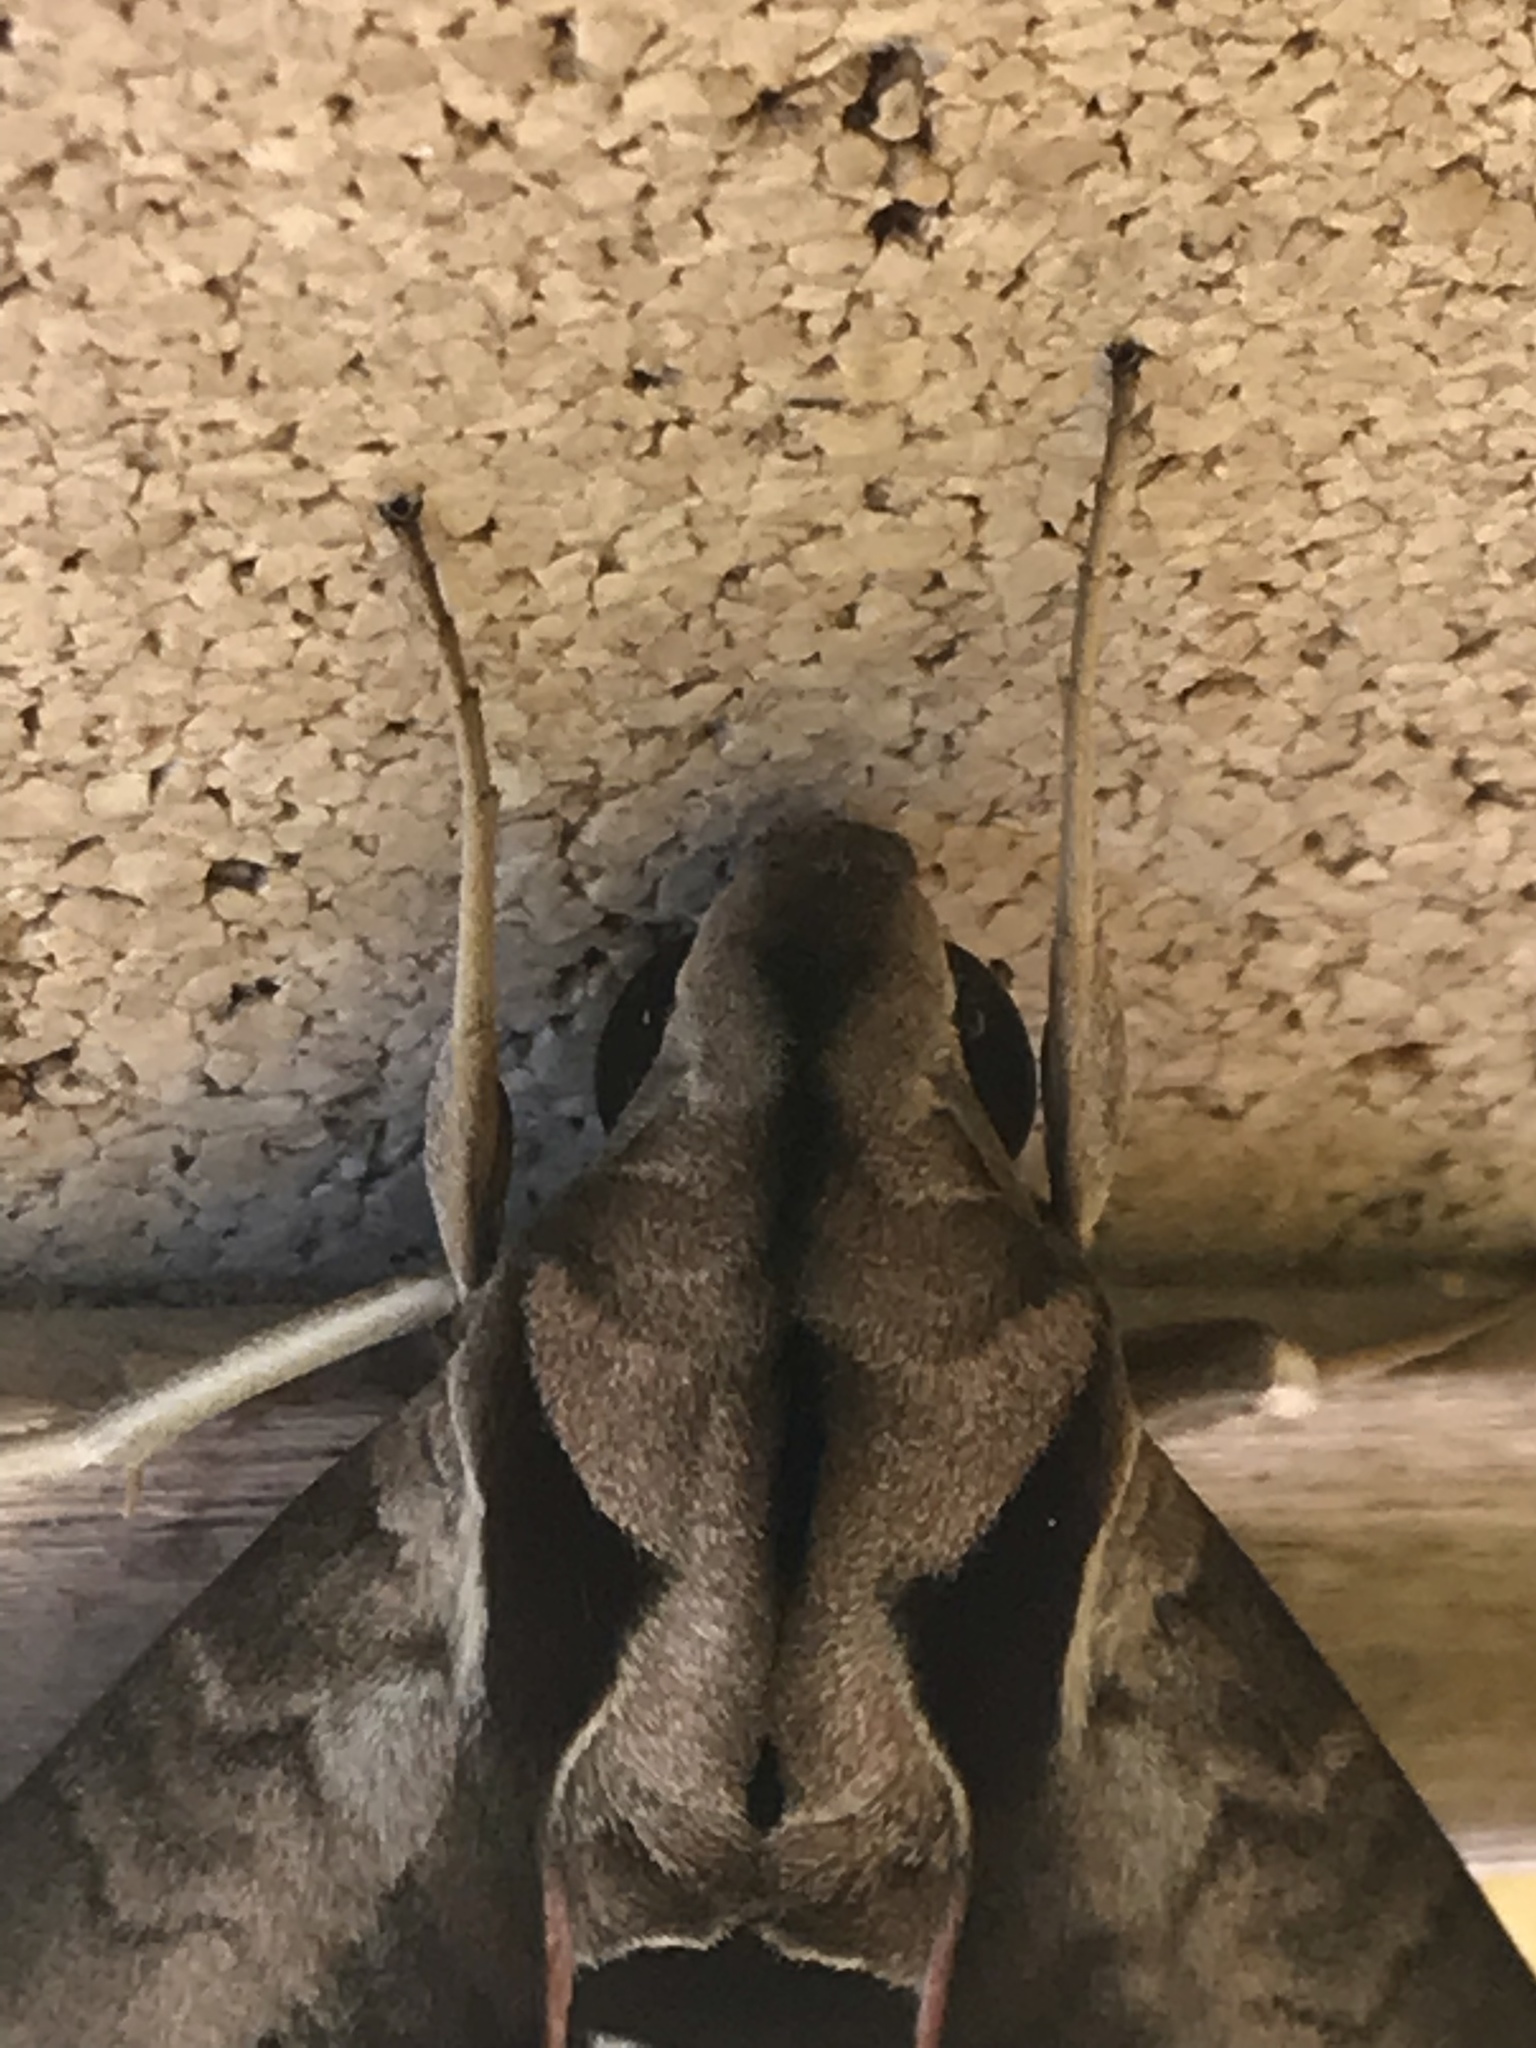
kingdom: Animalia
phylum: Arthropoda
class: Insecta
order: Lepidoptera
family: Sphingidae
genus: Eumorpha
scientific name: Eumorpha satellitia
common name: Satellite sphinx
